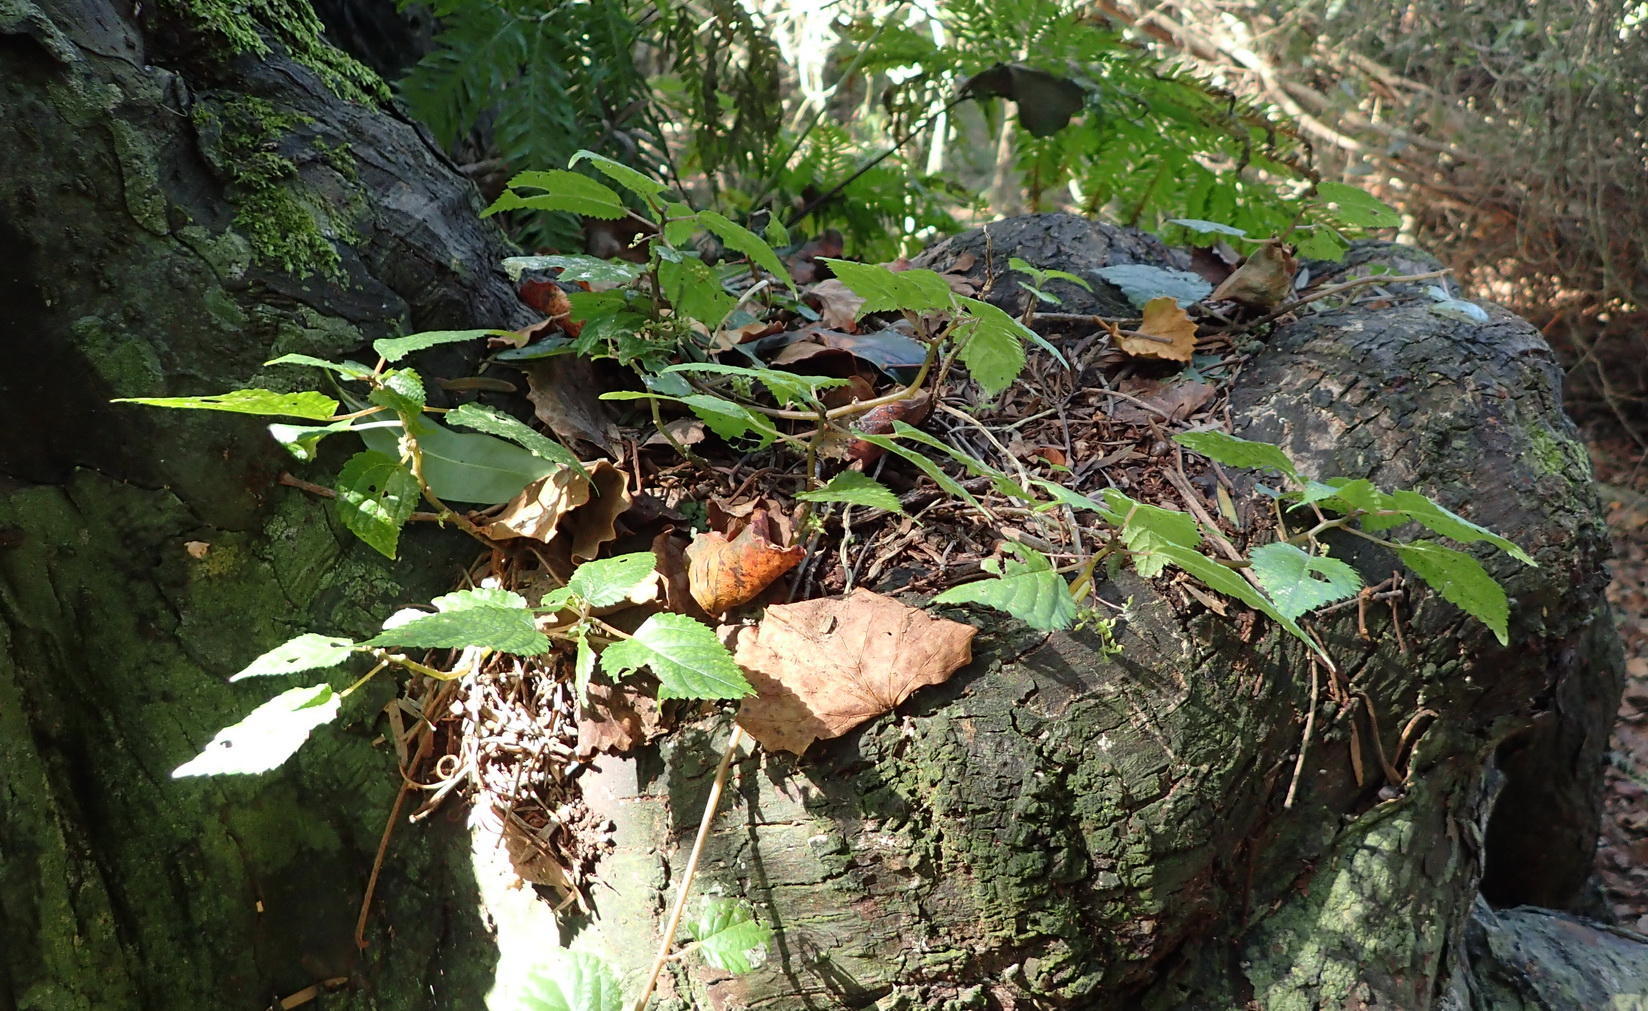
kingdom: Plantae
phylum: Tracheophyta
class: Magnoliopsida
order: Rosales
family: Urticaceae
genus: Droguetia
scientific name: Droguetia iners
